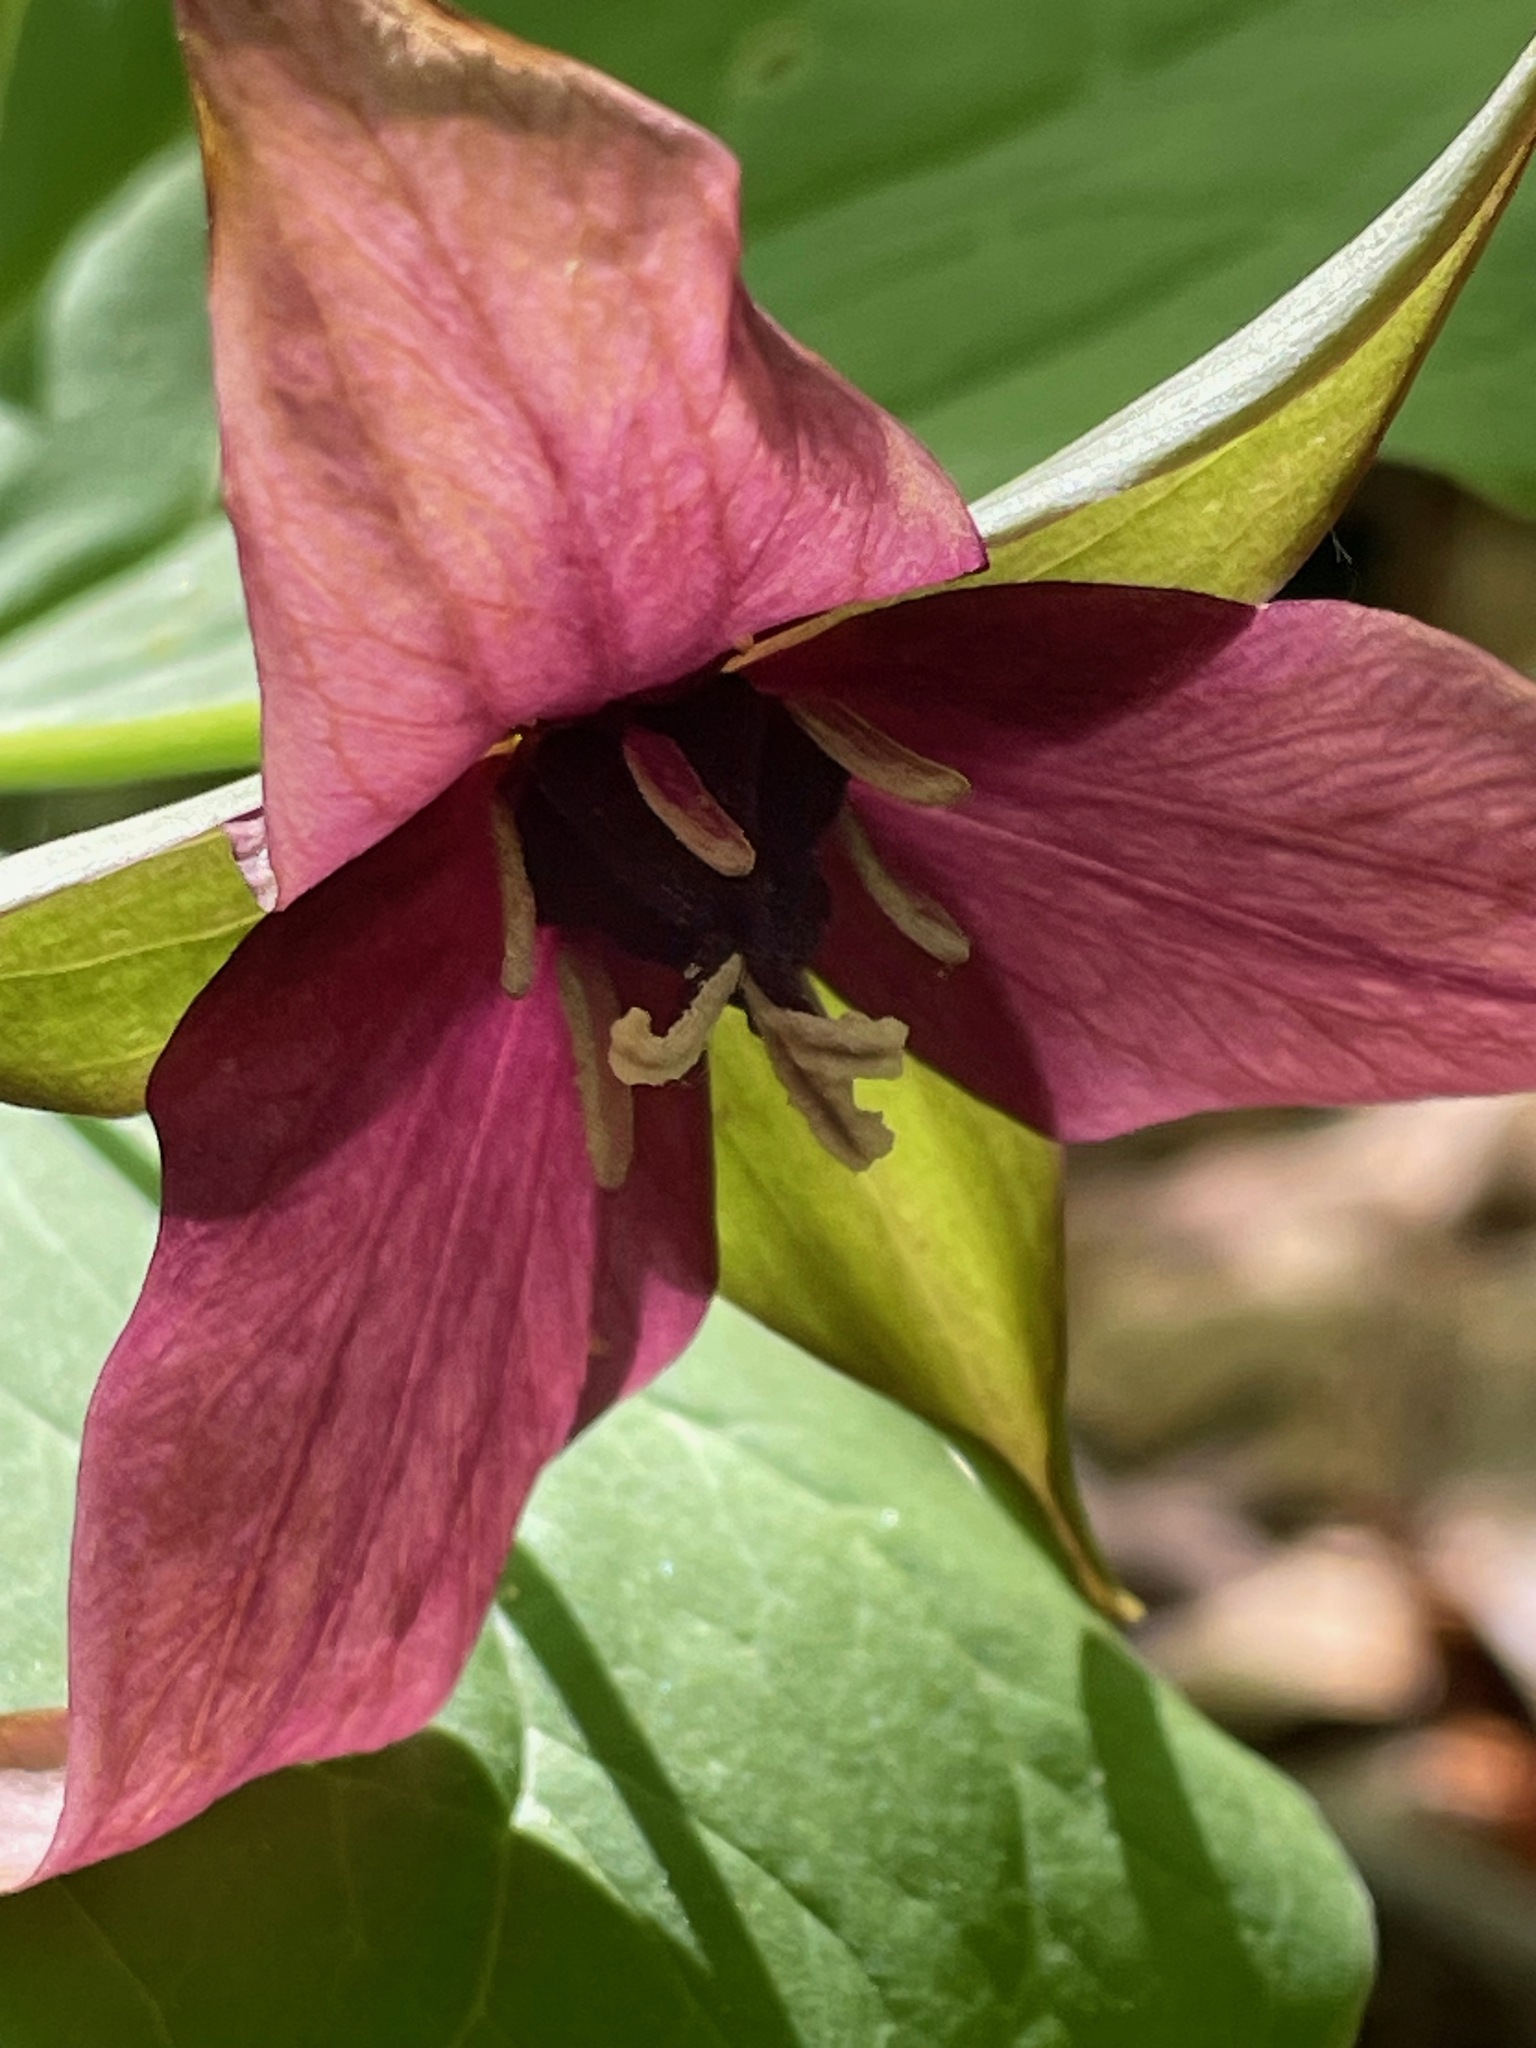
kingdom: Plantae
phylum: Tracheophyta
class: Liliopsida
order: Liliales
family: Melanthiaceae
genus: Trillium
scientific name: Trillium erectum
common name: Purple trillium
